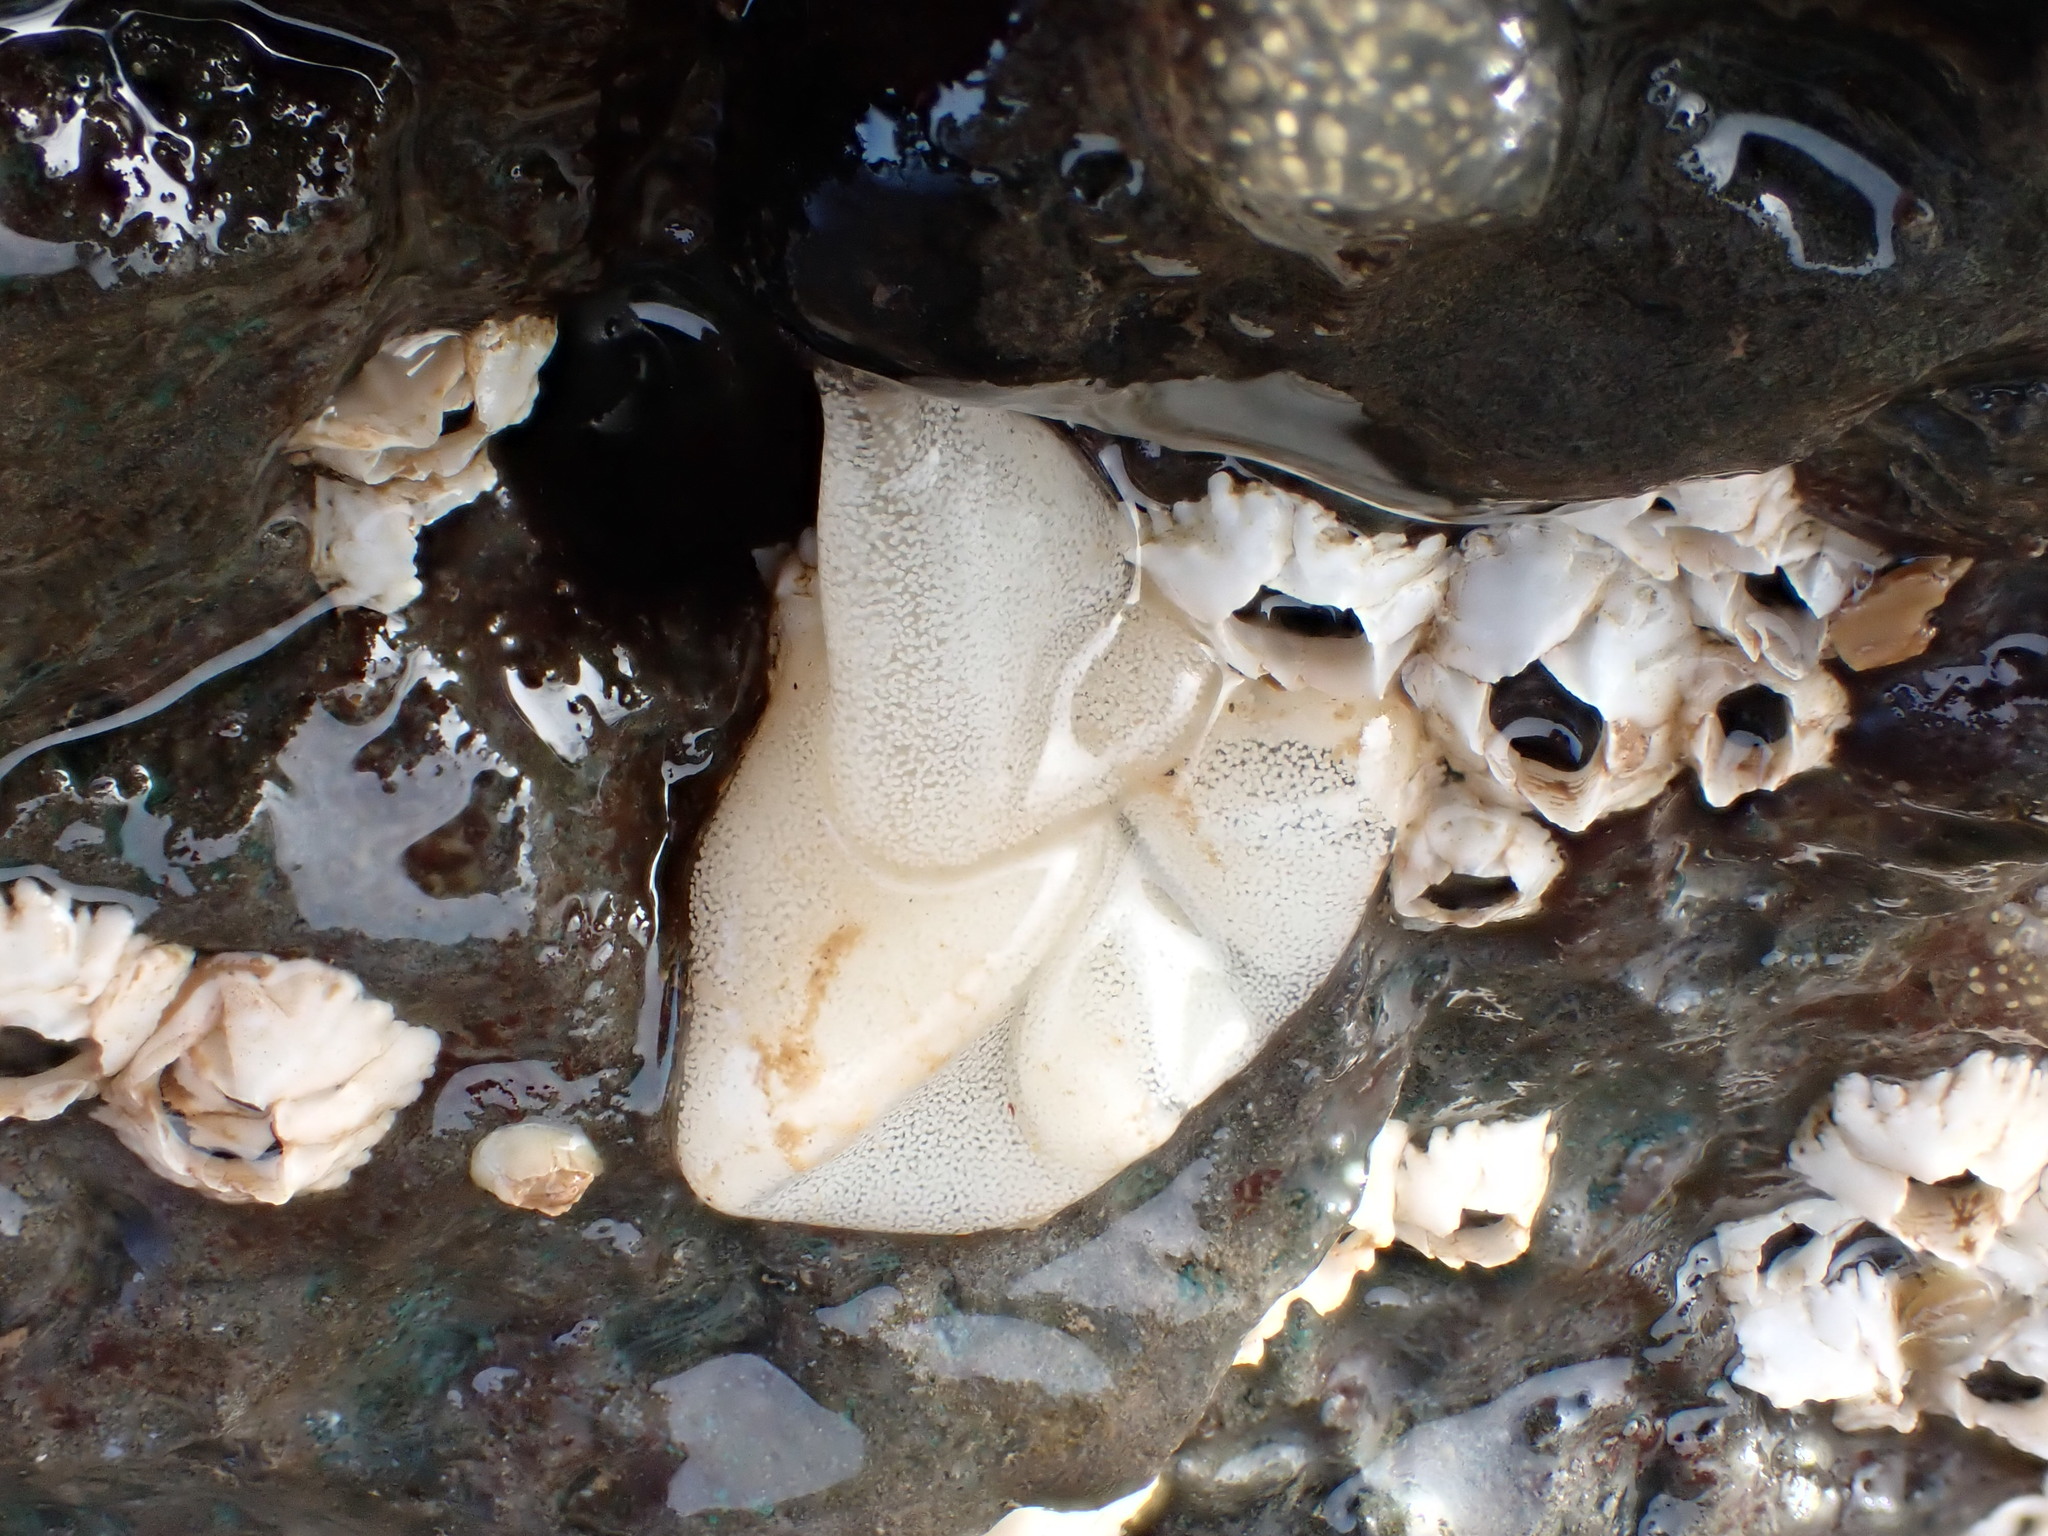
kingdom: Animalia
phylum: Mollusca
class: Gastropoda
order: Nudibranchia
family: Onchidorididae
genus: Onchidoris
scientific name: Onchidoris bilamellata
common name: Barnacle-eating onchidoris
